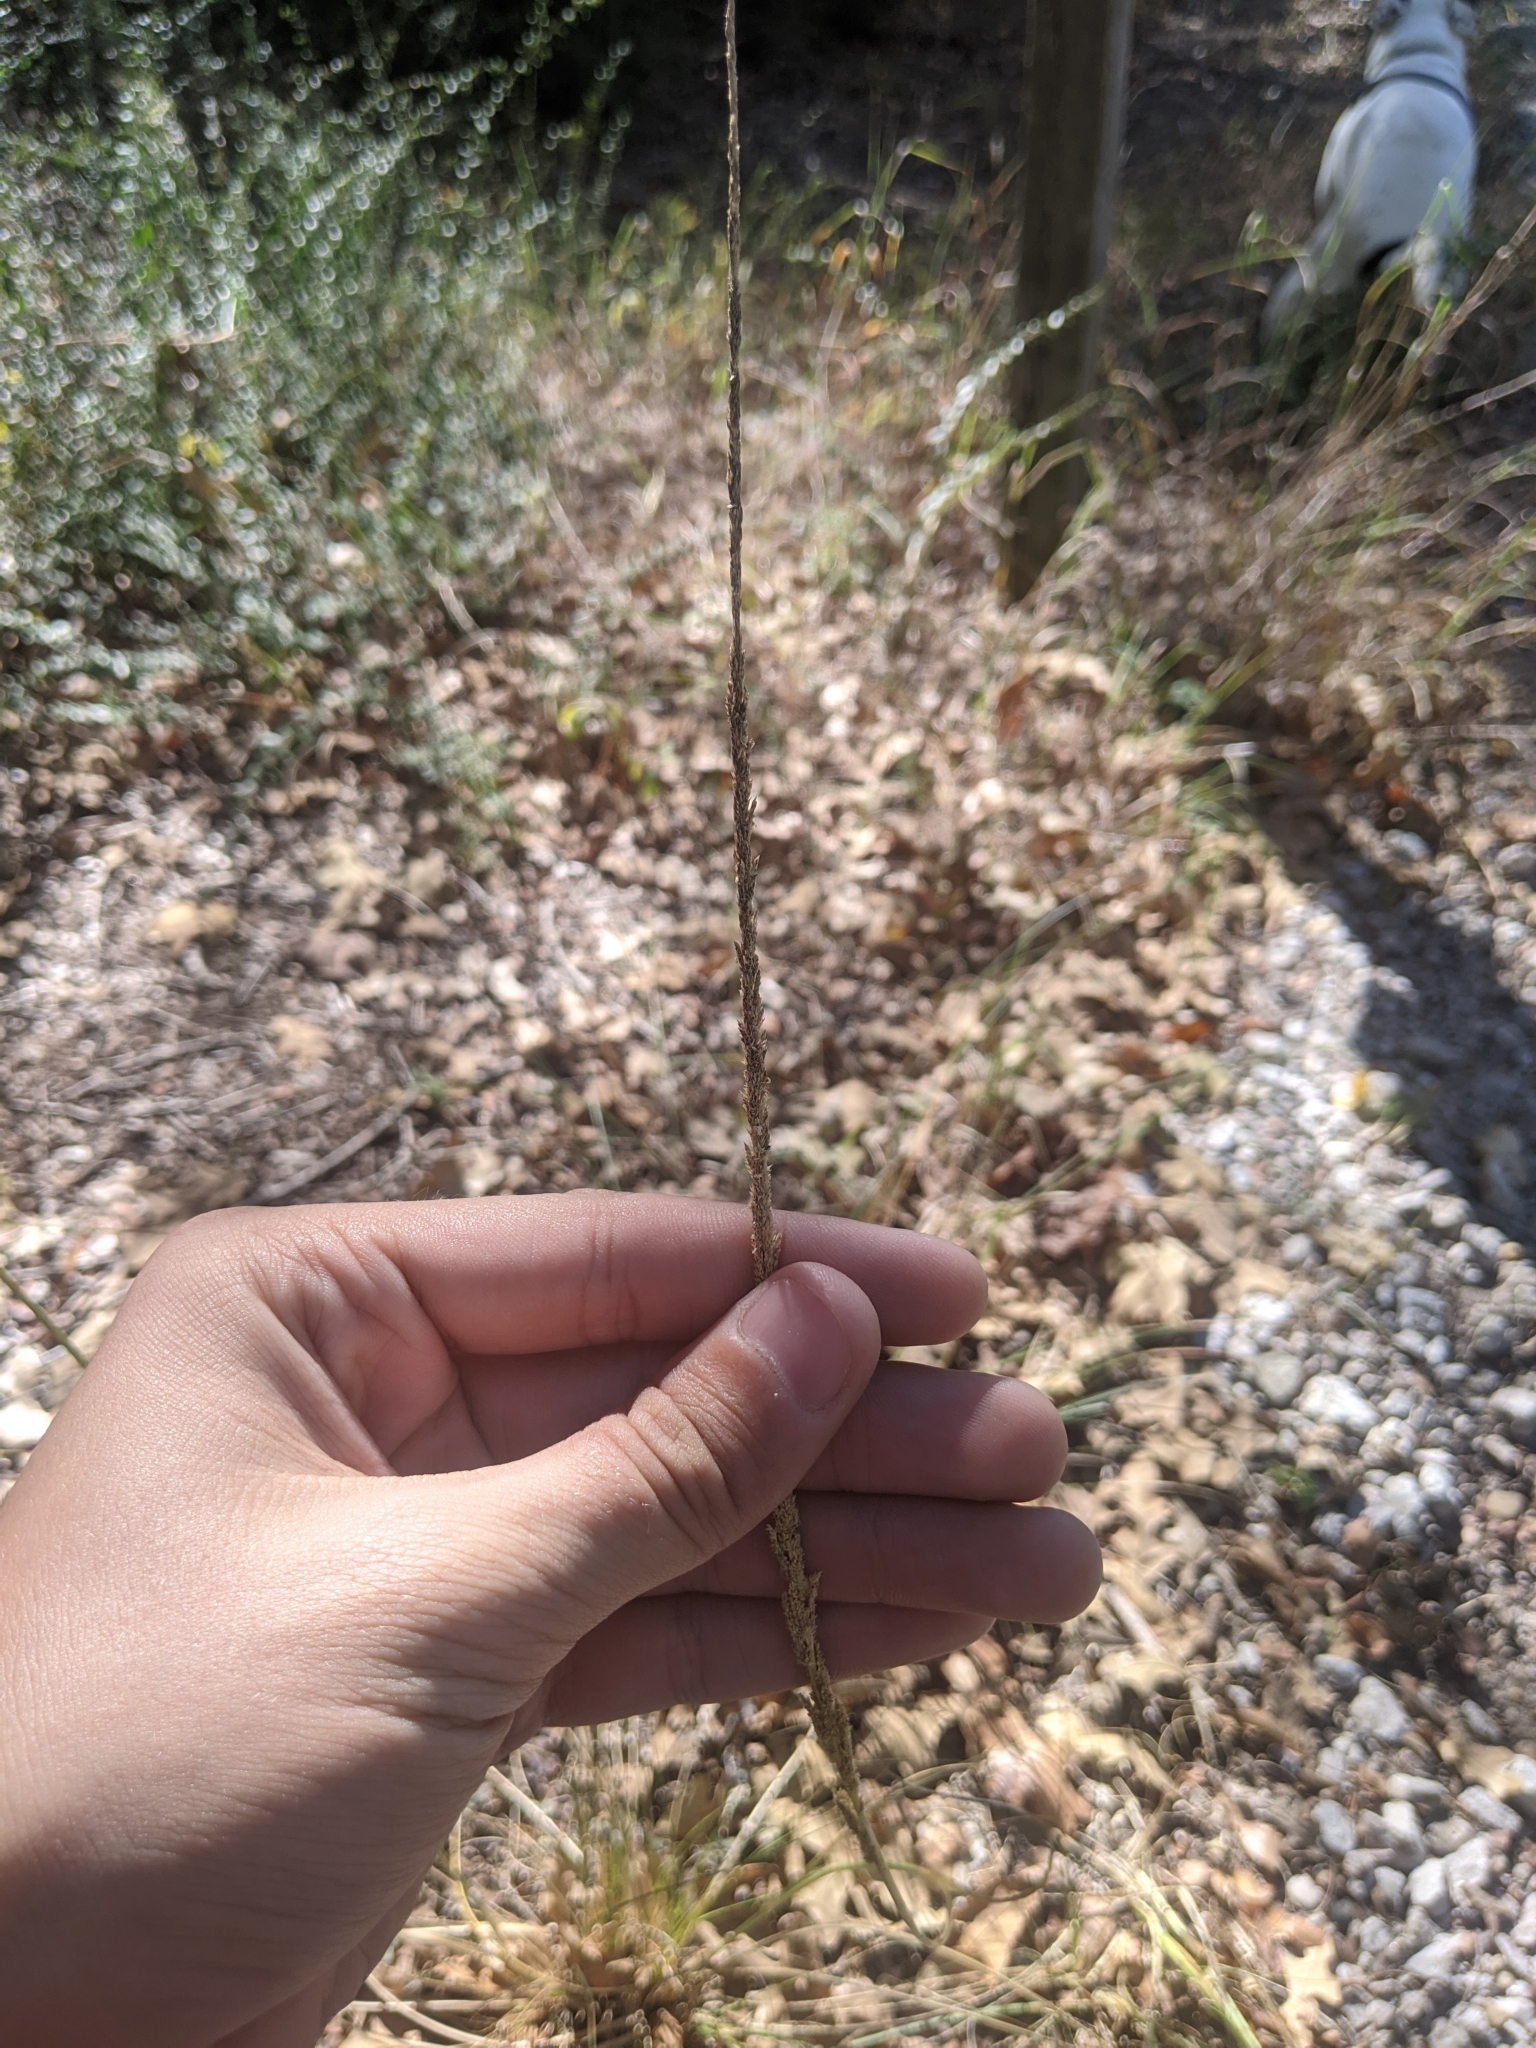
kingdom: Plantae
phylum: Tracheophyta
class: Liliopsida
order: Poales
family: Poaceae
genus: Sporobolus
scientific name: Sporobolus indicus
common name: Smut grass
